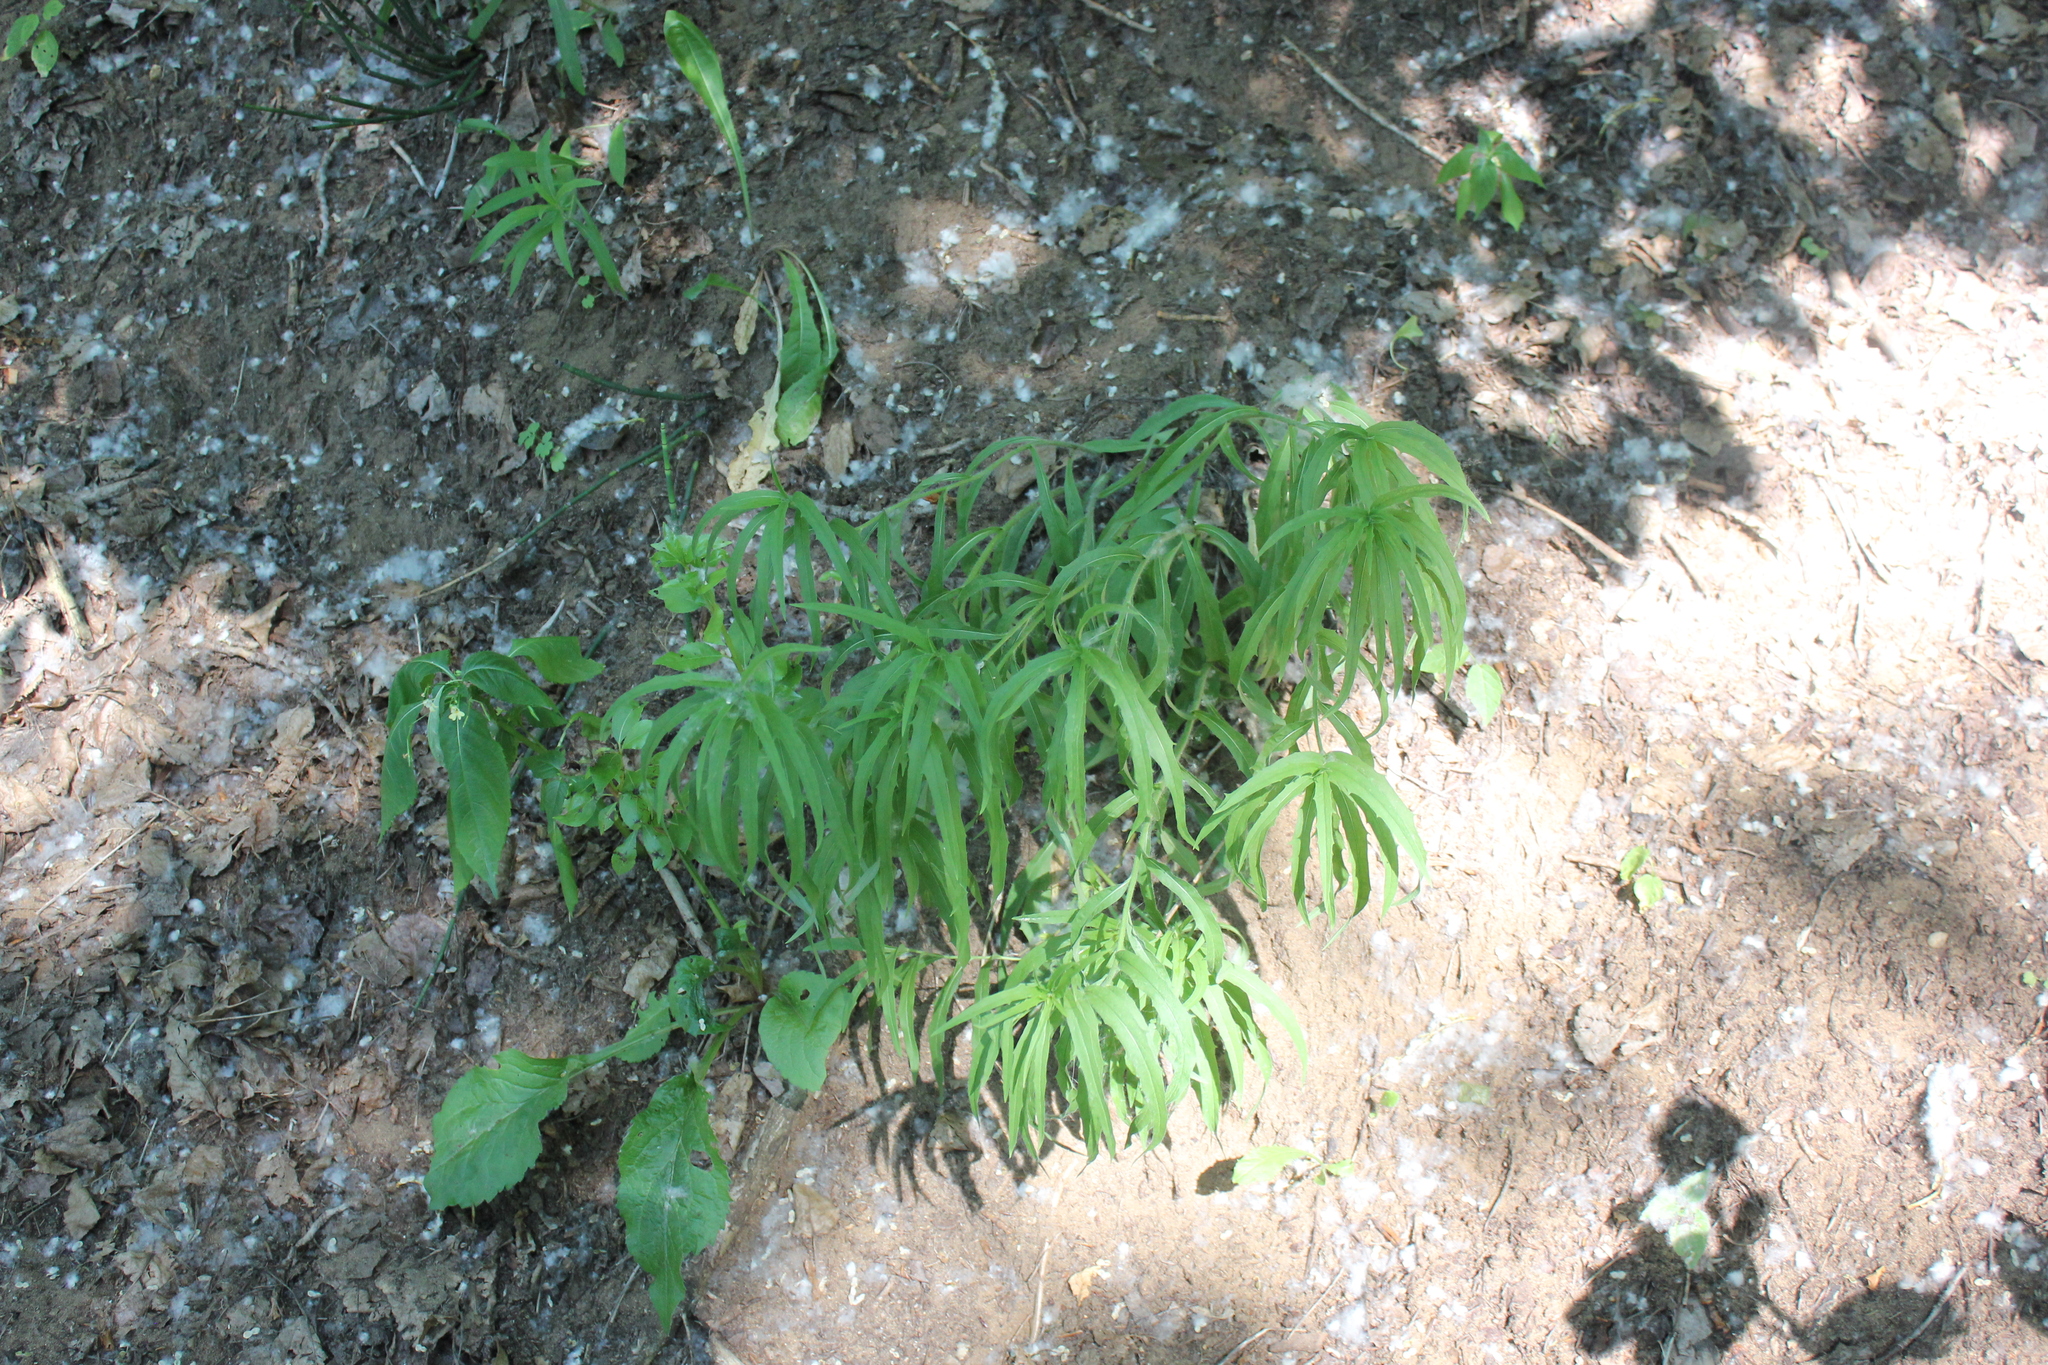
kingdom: Plantae
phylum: Tracheophyta
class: Magnoliopsida
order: Asterales
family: Asteraceae
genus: Hieracium
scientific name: Hieracium umbellatum
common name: Northern hawkweed
